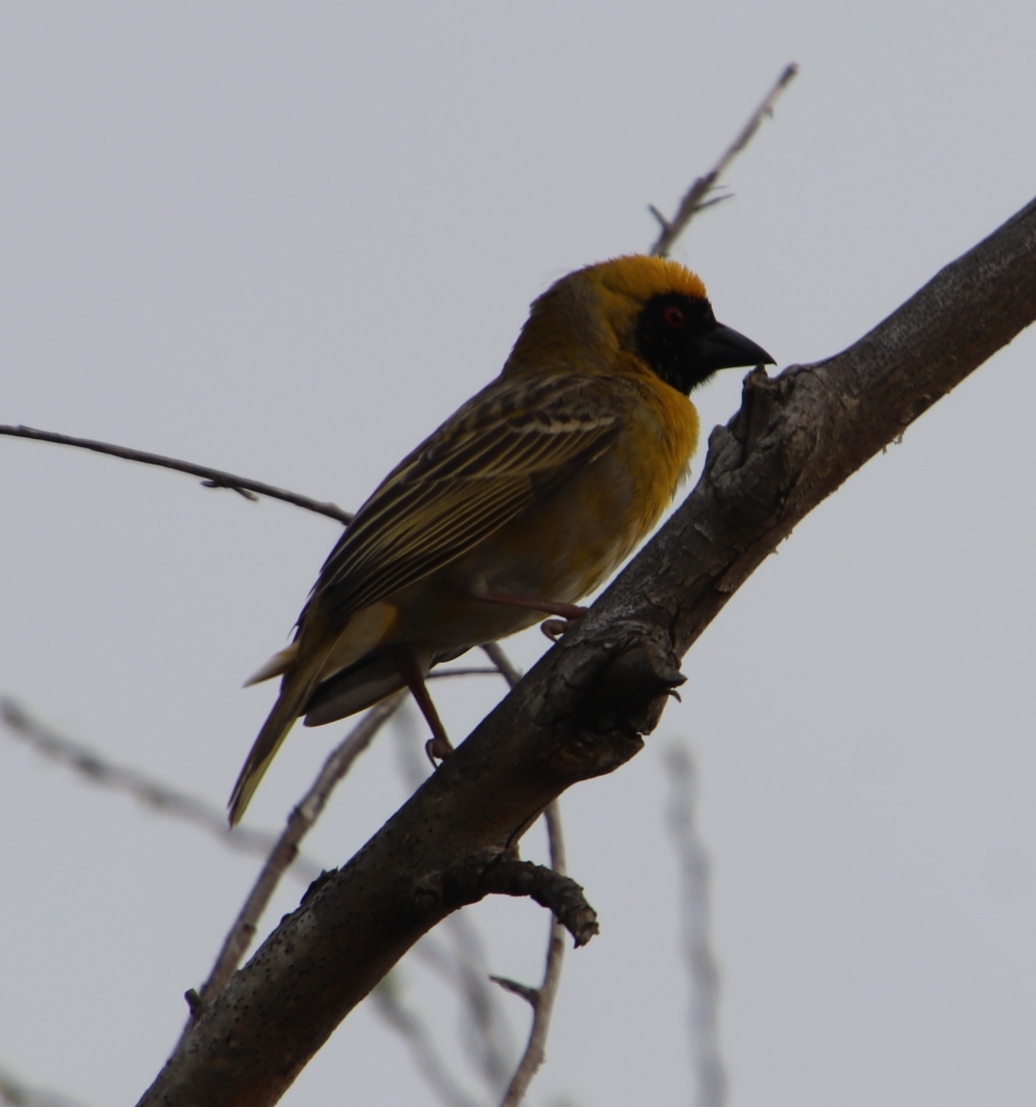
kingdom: Animalia
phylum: Chordata
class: Aves
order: Passeriformes
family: Ploceidae
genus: Ploceus
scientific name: Ploceus velatus
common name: Southern masked weaver
